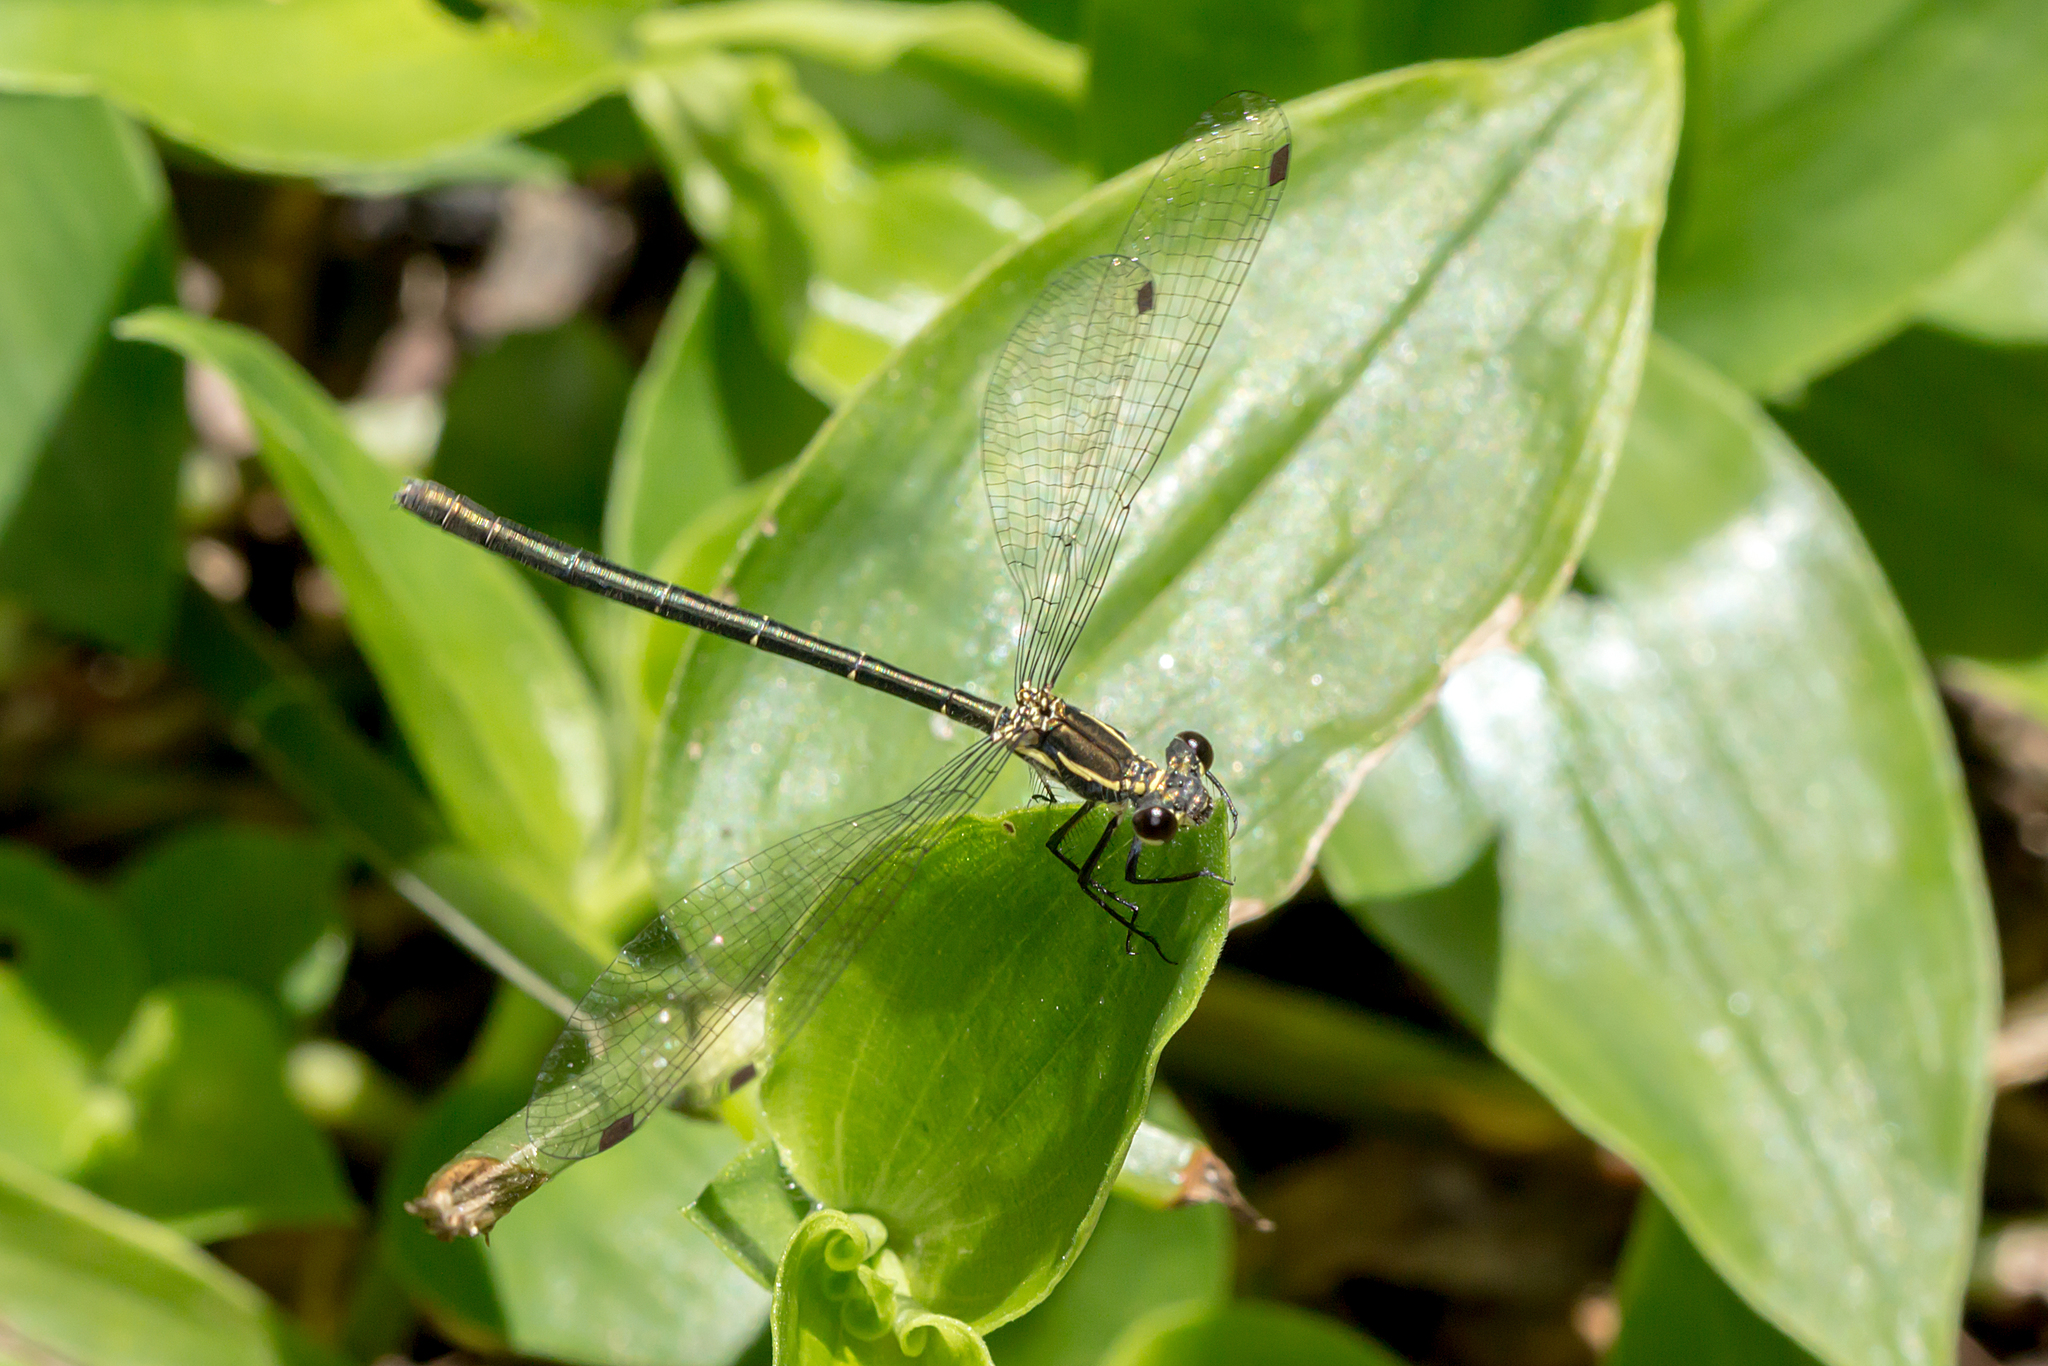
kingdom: Animalia
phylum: Arthropoda
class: Insecta
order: Odonata
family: Argiolestidae
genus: Griseargiolestes
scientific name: Griseargiolestes intermedius
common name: Alpine flatwing
